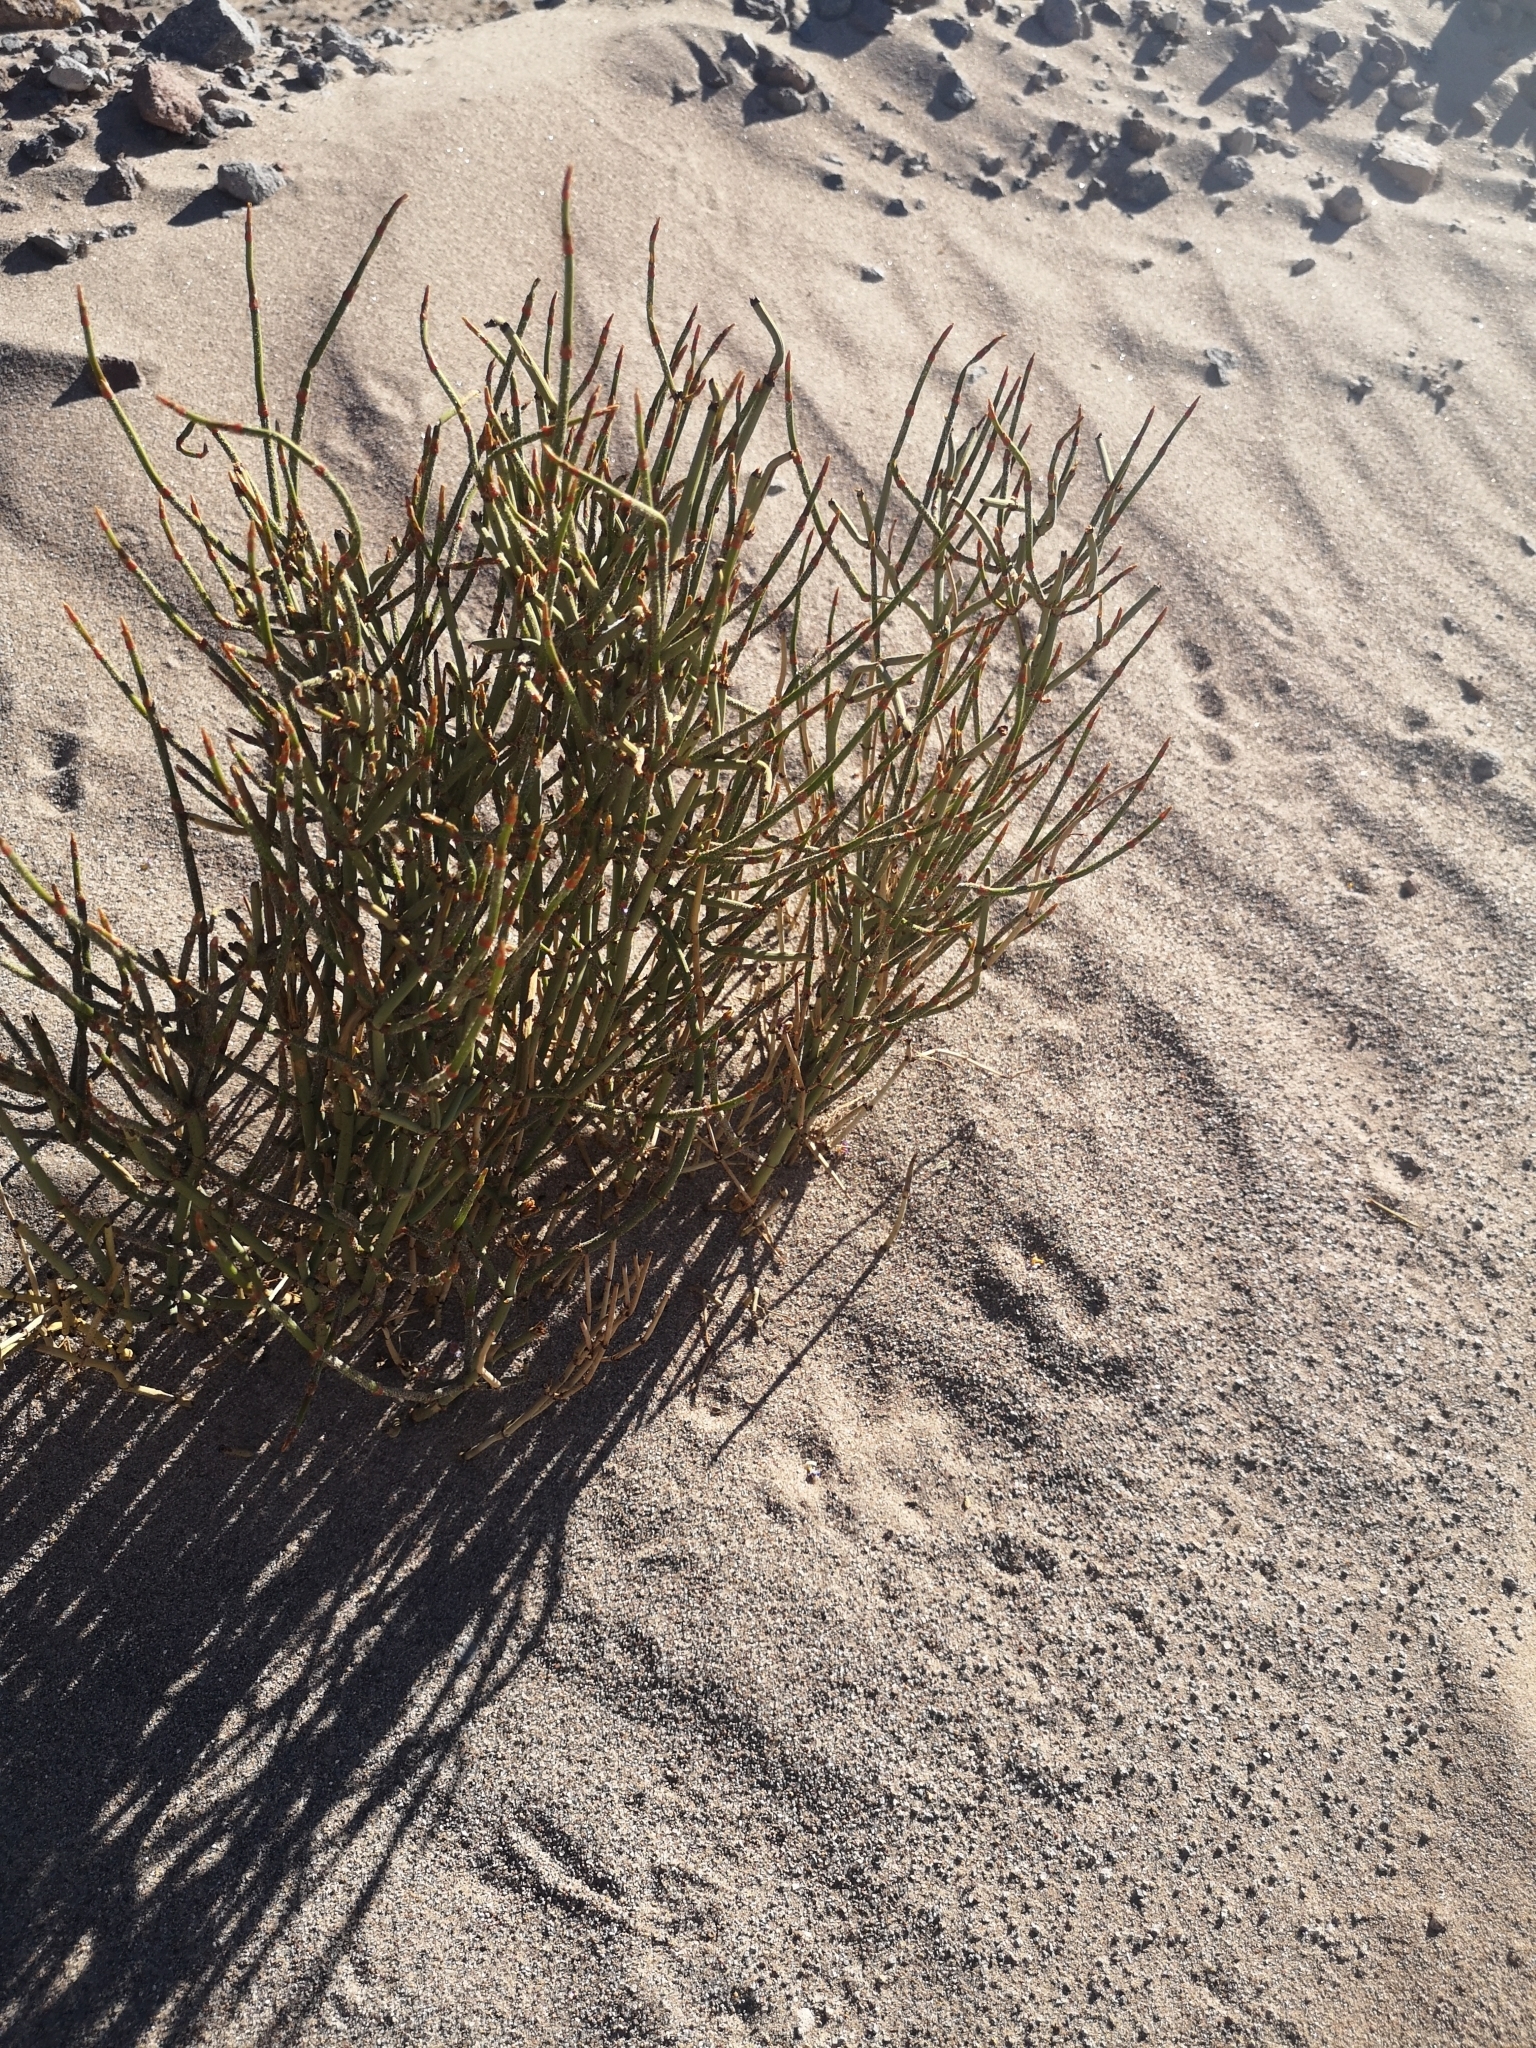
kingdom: Plantae
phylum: Tracheophyta
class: Gnetopsida
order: Ephedrales
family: Ephedraceae
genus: Ephedra
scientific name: Ephedra multiflora
